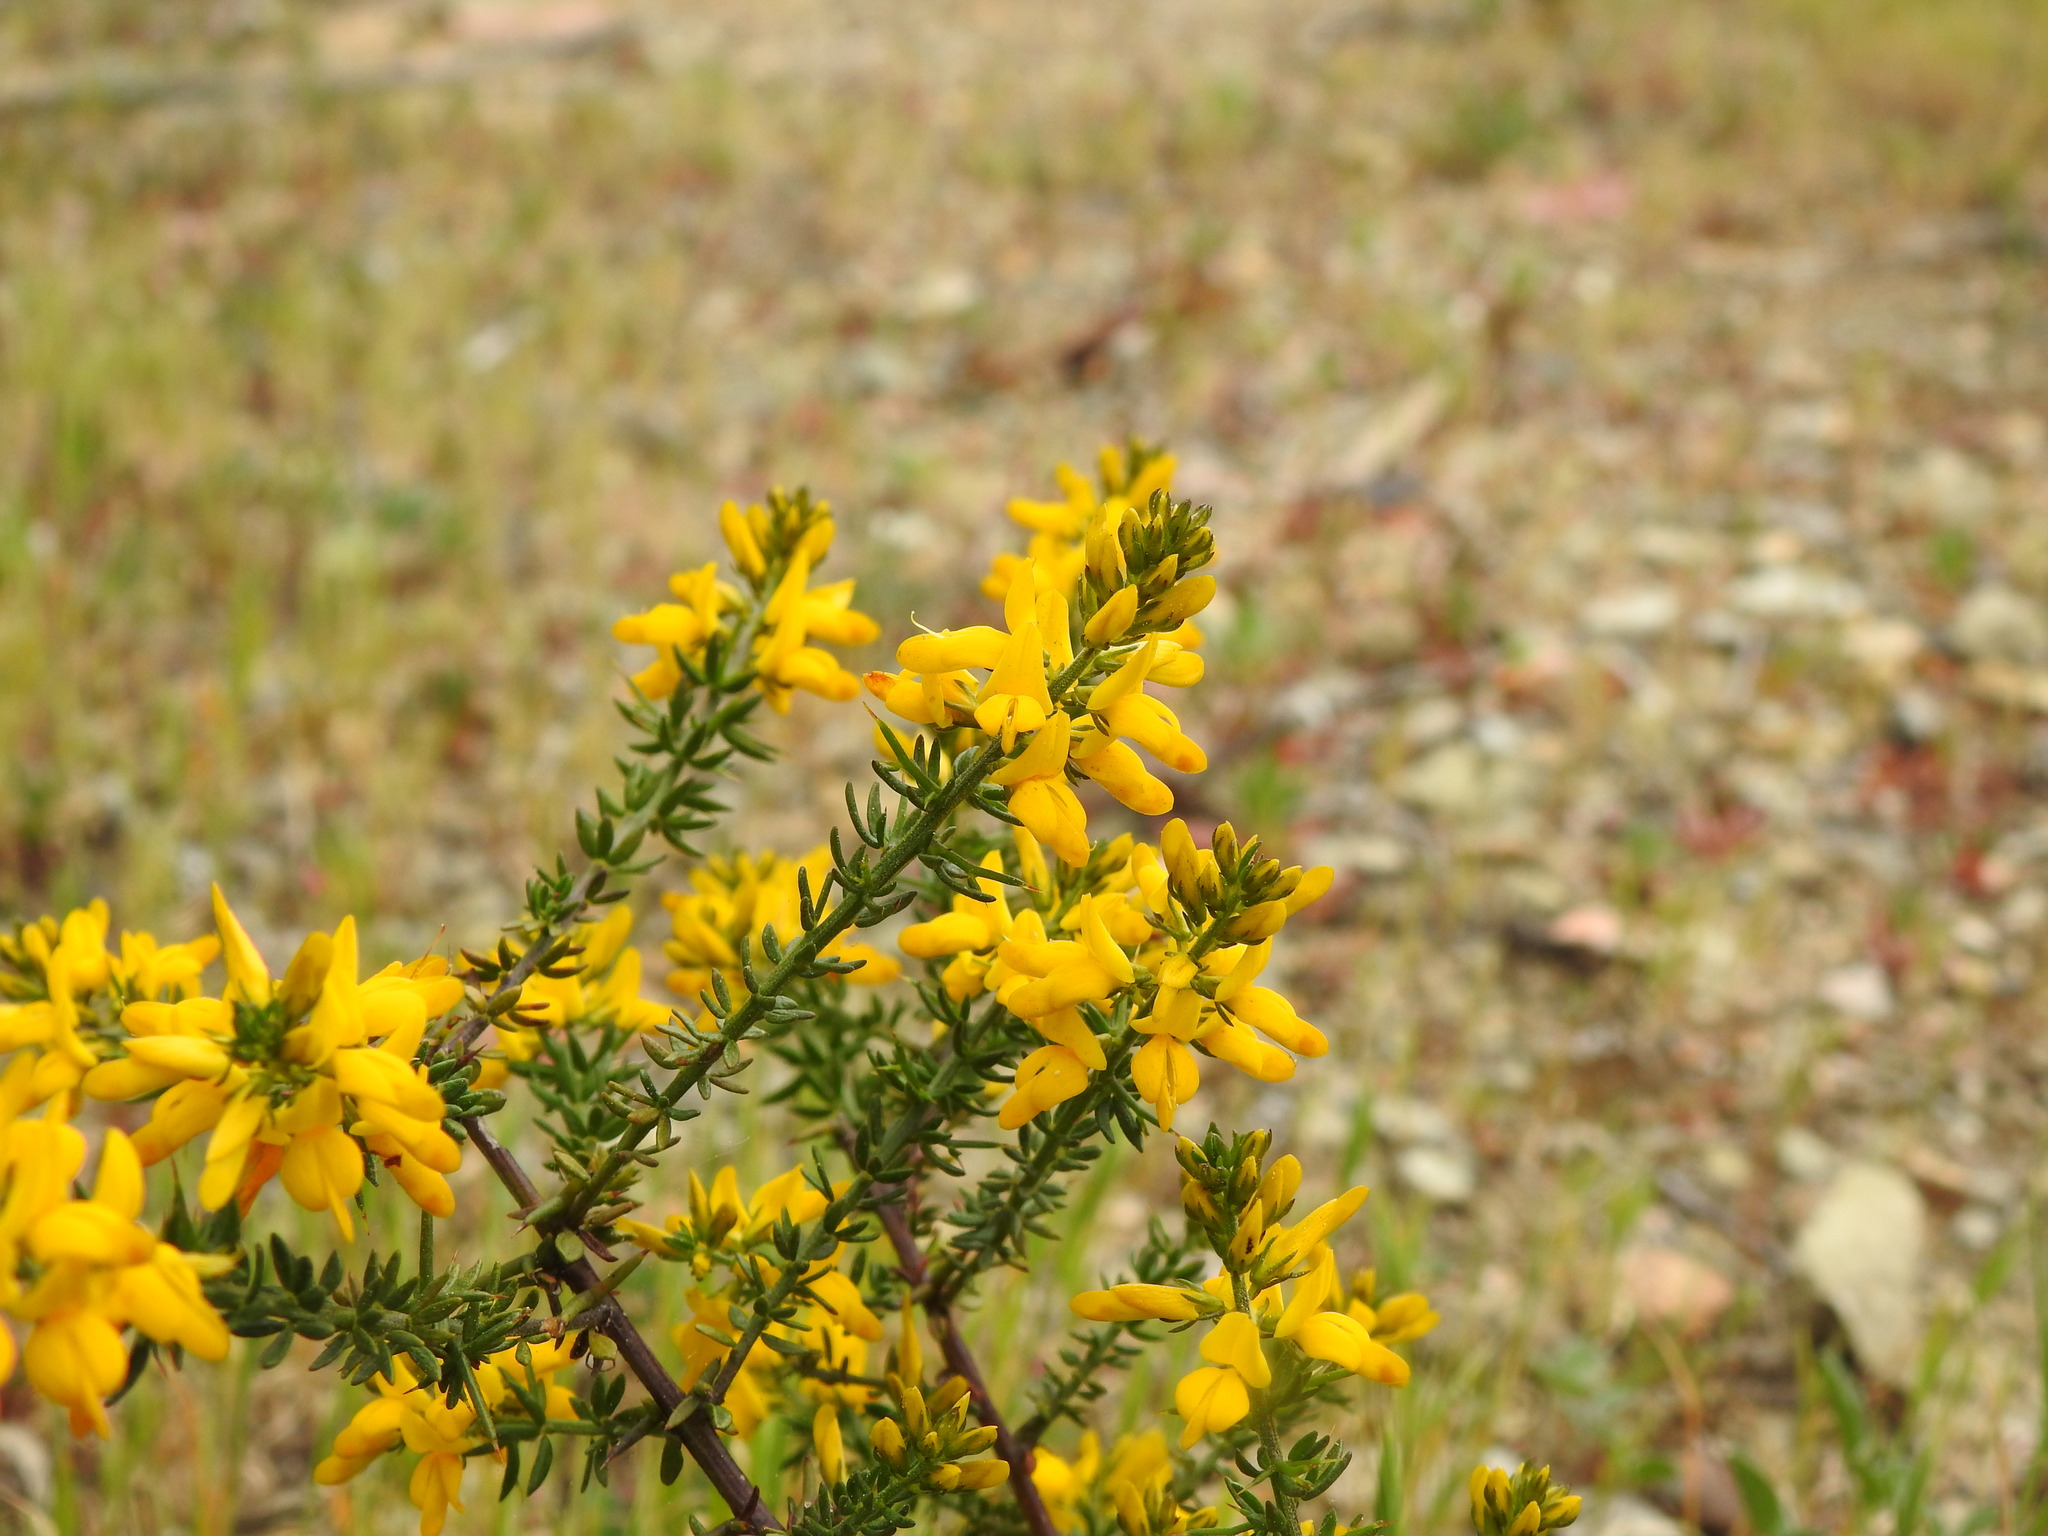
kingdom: Plantae
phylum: Tracheophyta
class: Magnoliopsida
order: Fabales
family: Fabaceae
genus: Genista
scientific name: Genista triacanthos
